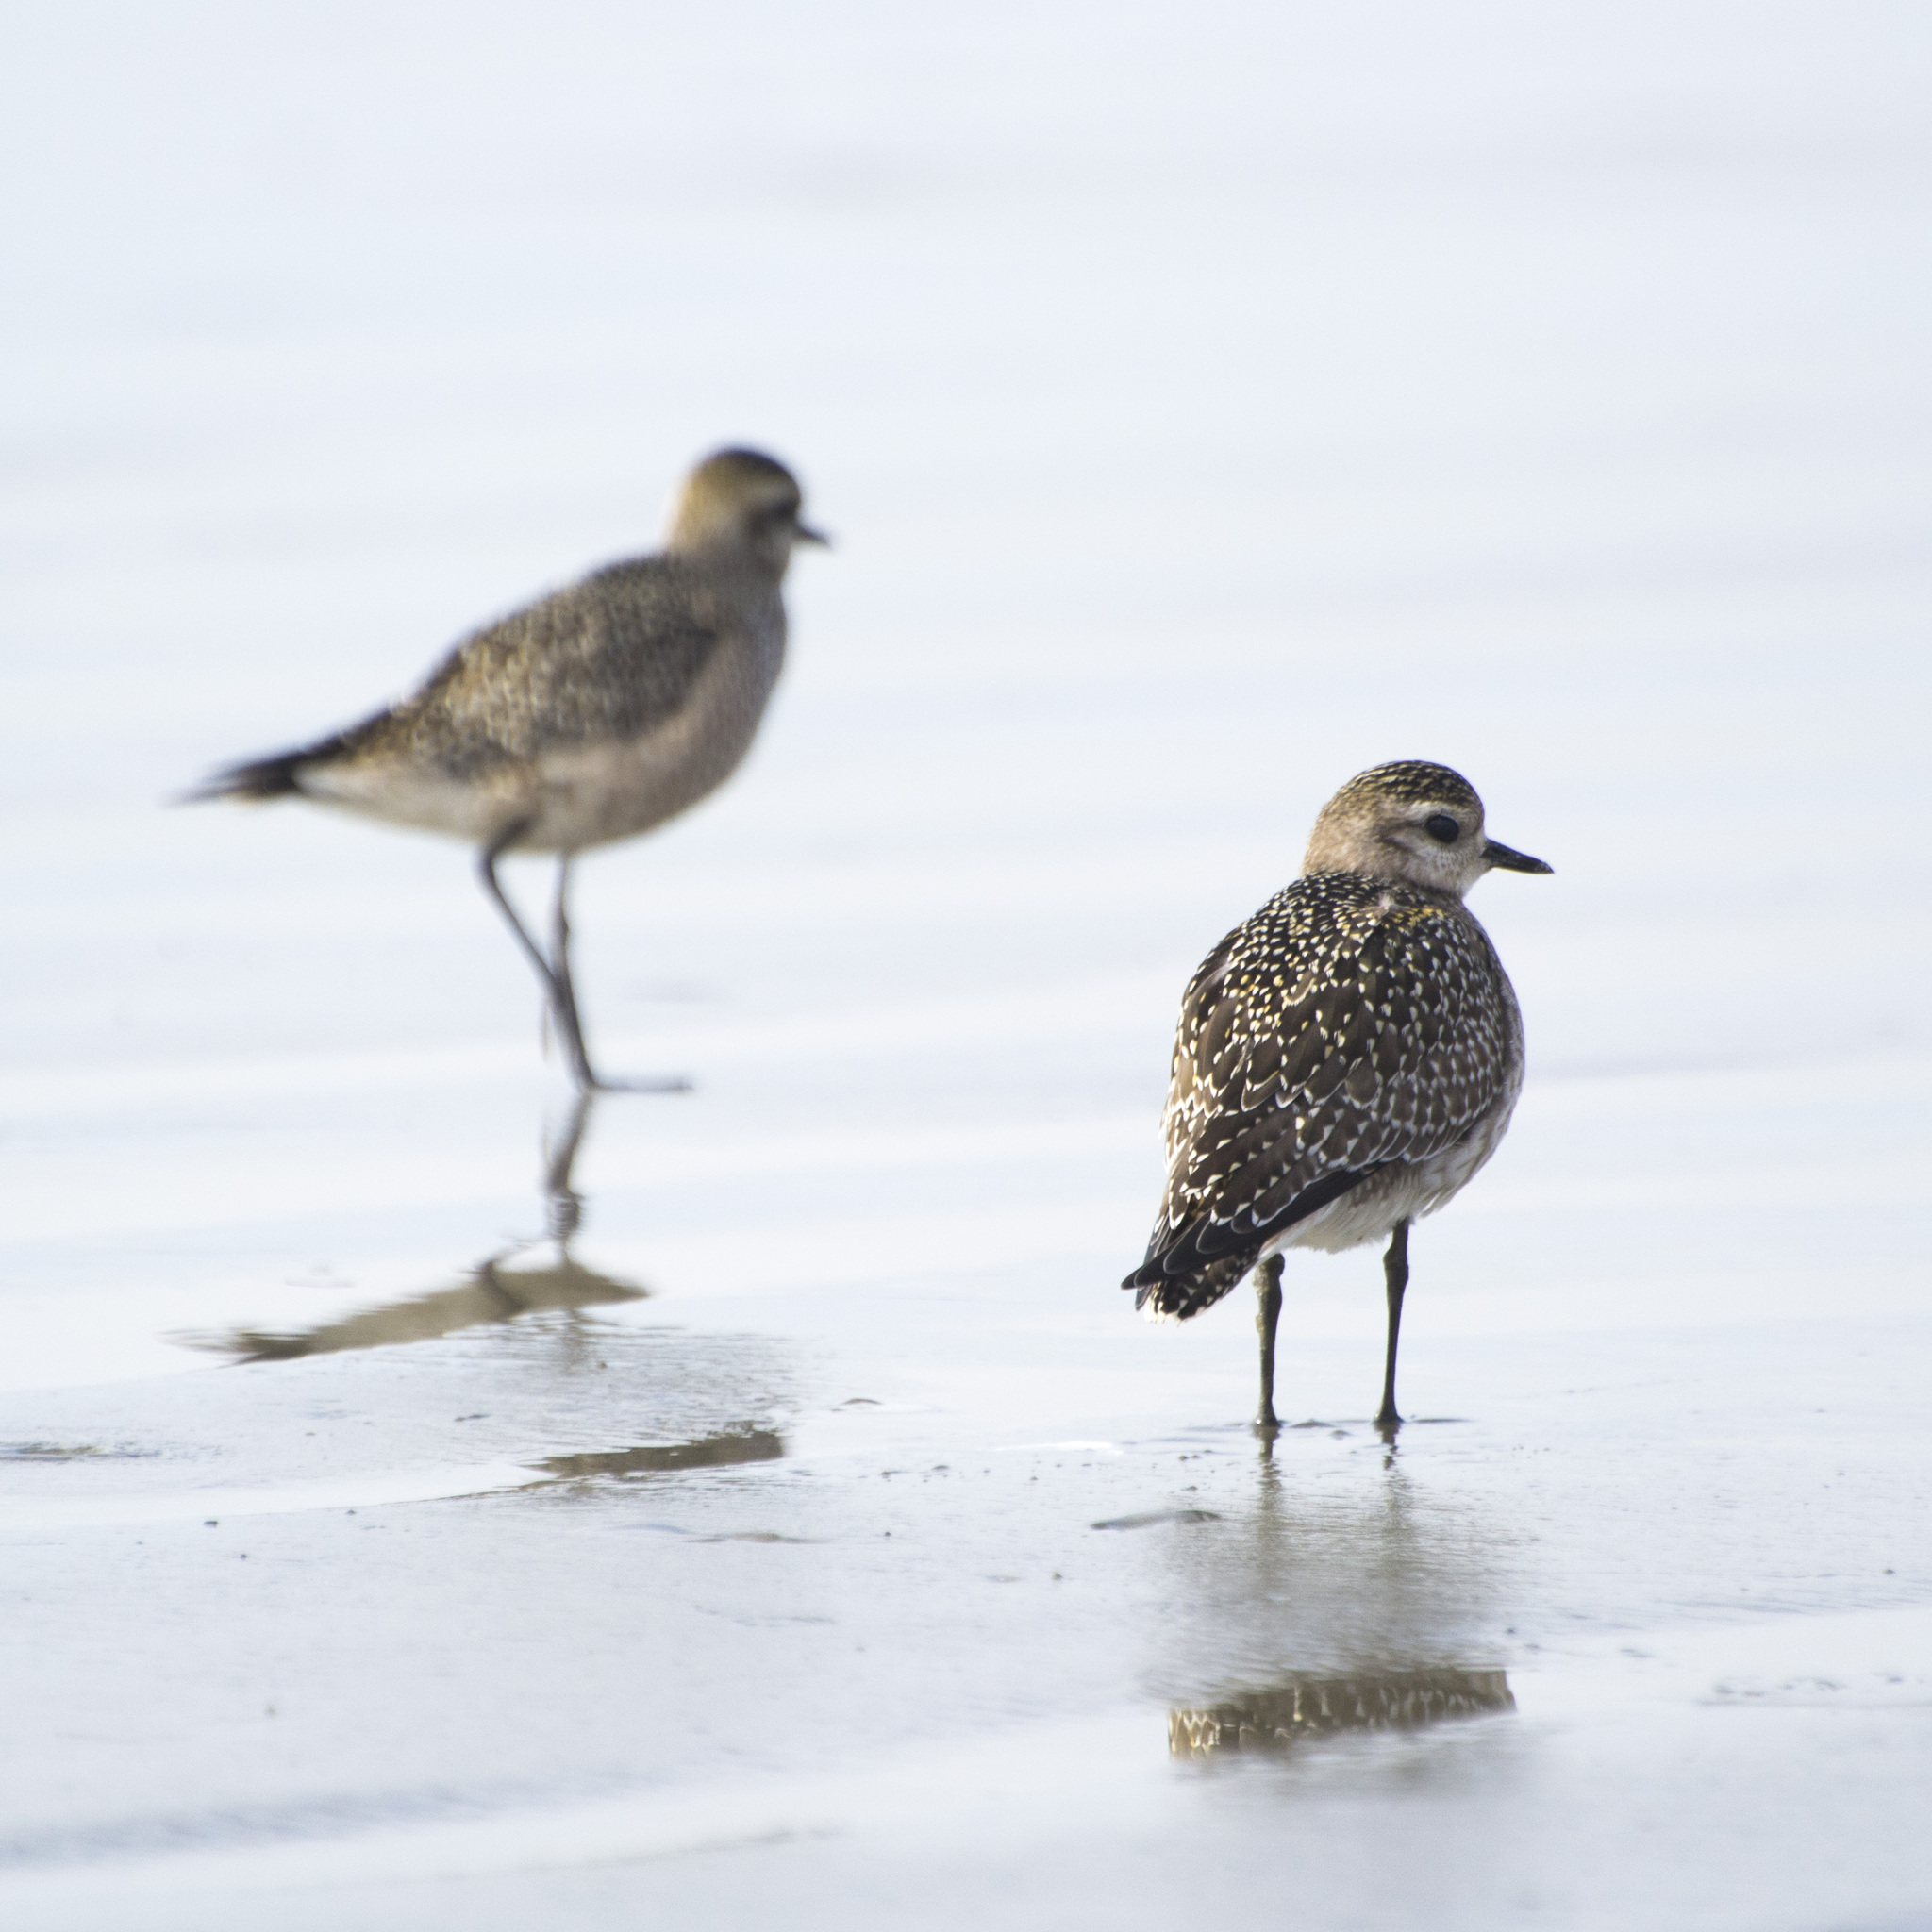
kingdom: Animalia
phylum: Chordata
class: Aves
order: Charadriiformes
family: Charadriidae
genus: Pluvialis
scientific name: Pluvialis dominica
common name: American golden plover
